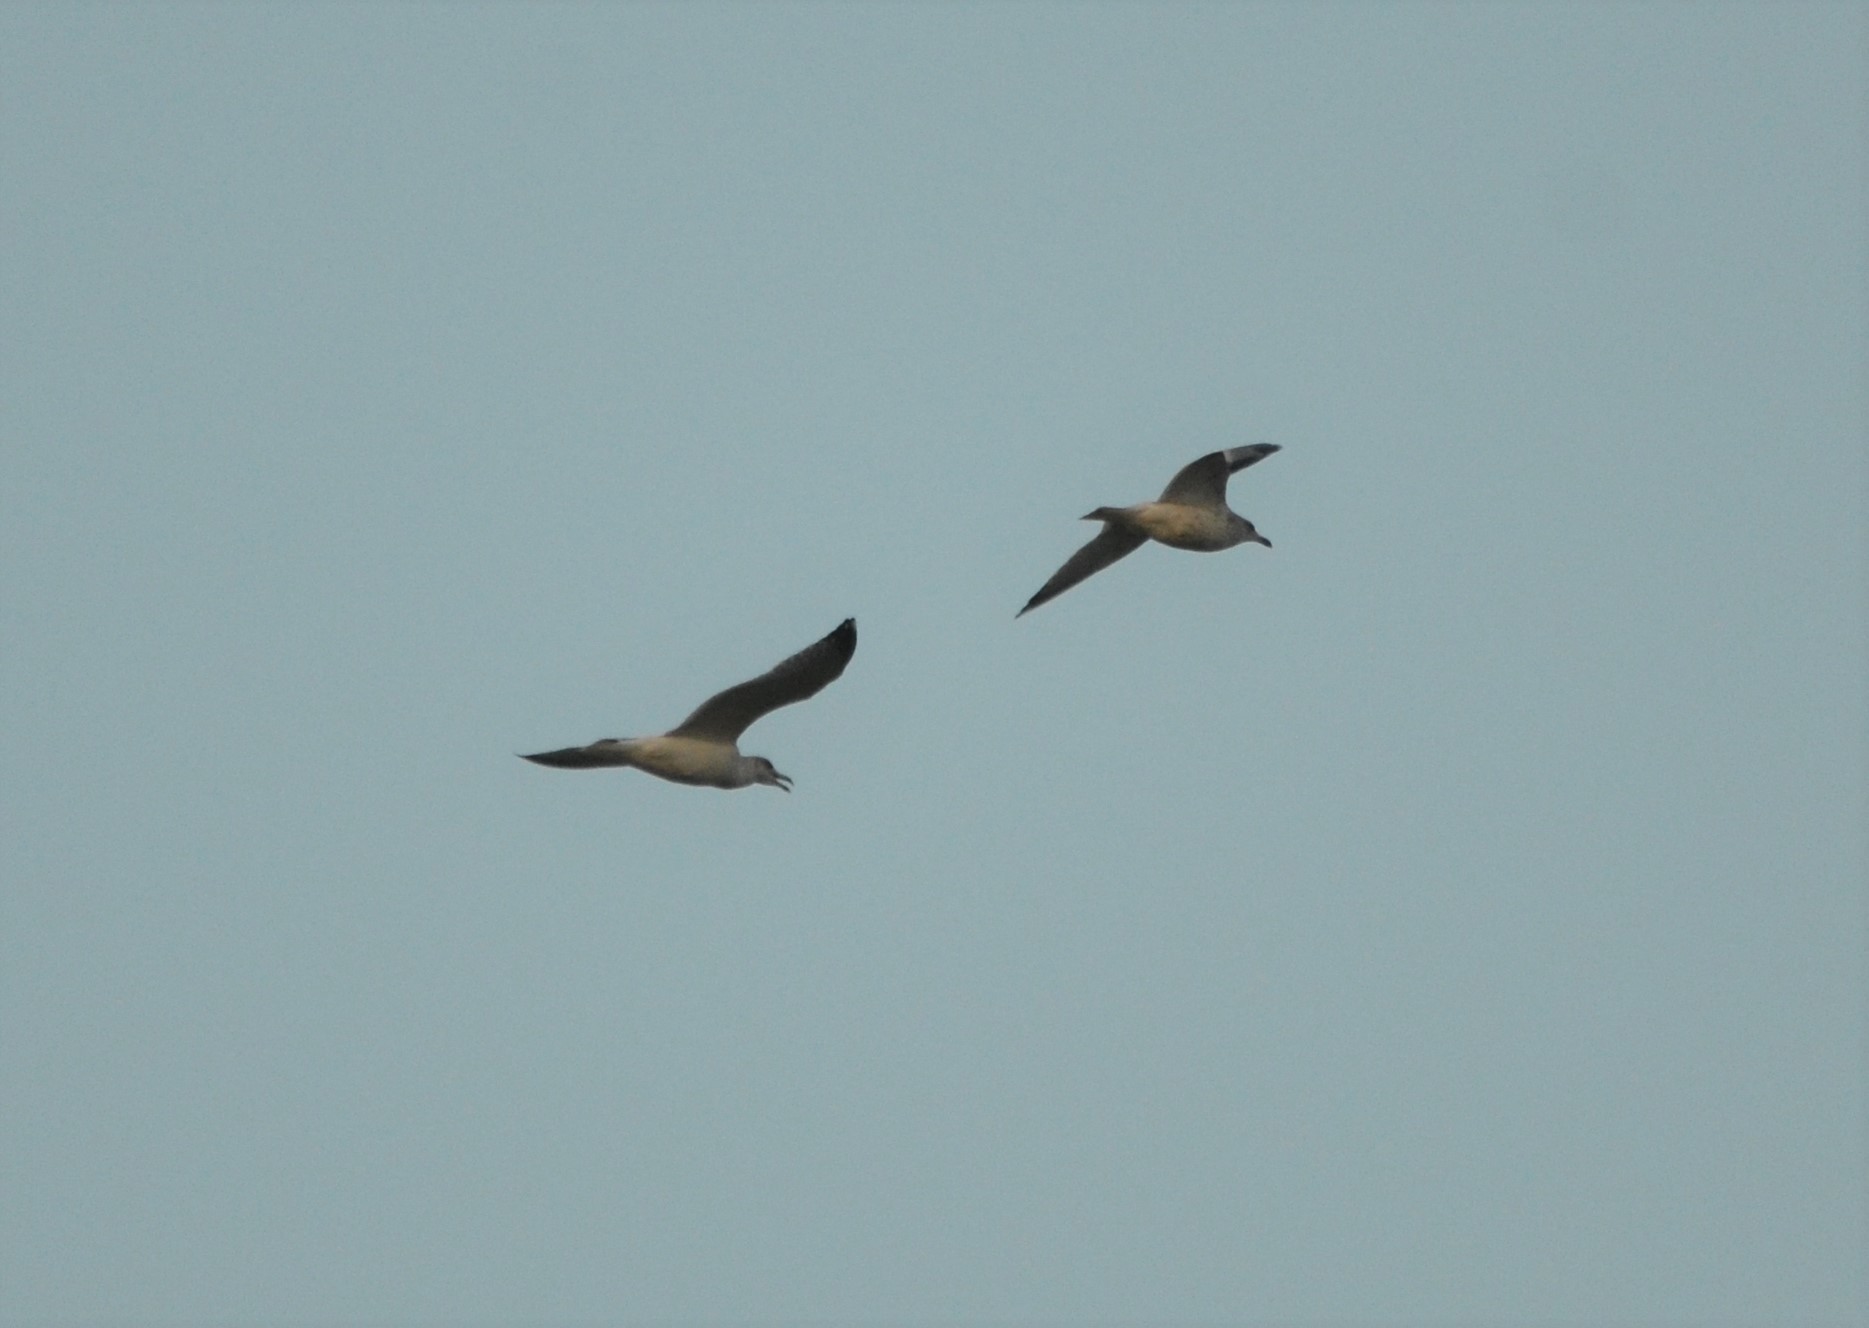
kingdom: Animalia
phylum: Chordata
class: Aves
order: Charadriiformes
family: Laridae
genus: Larus
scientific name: Larus argentatus
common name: Herring gull
